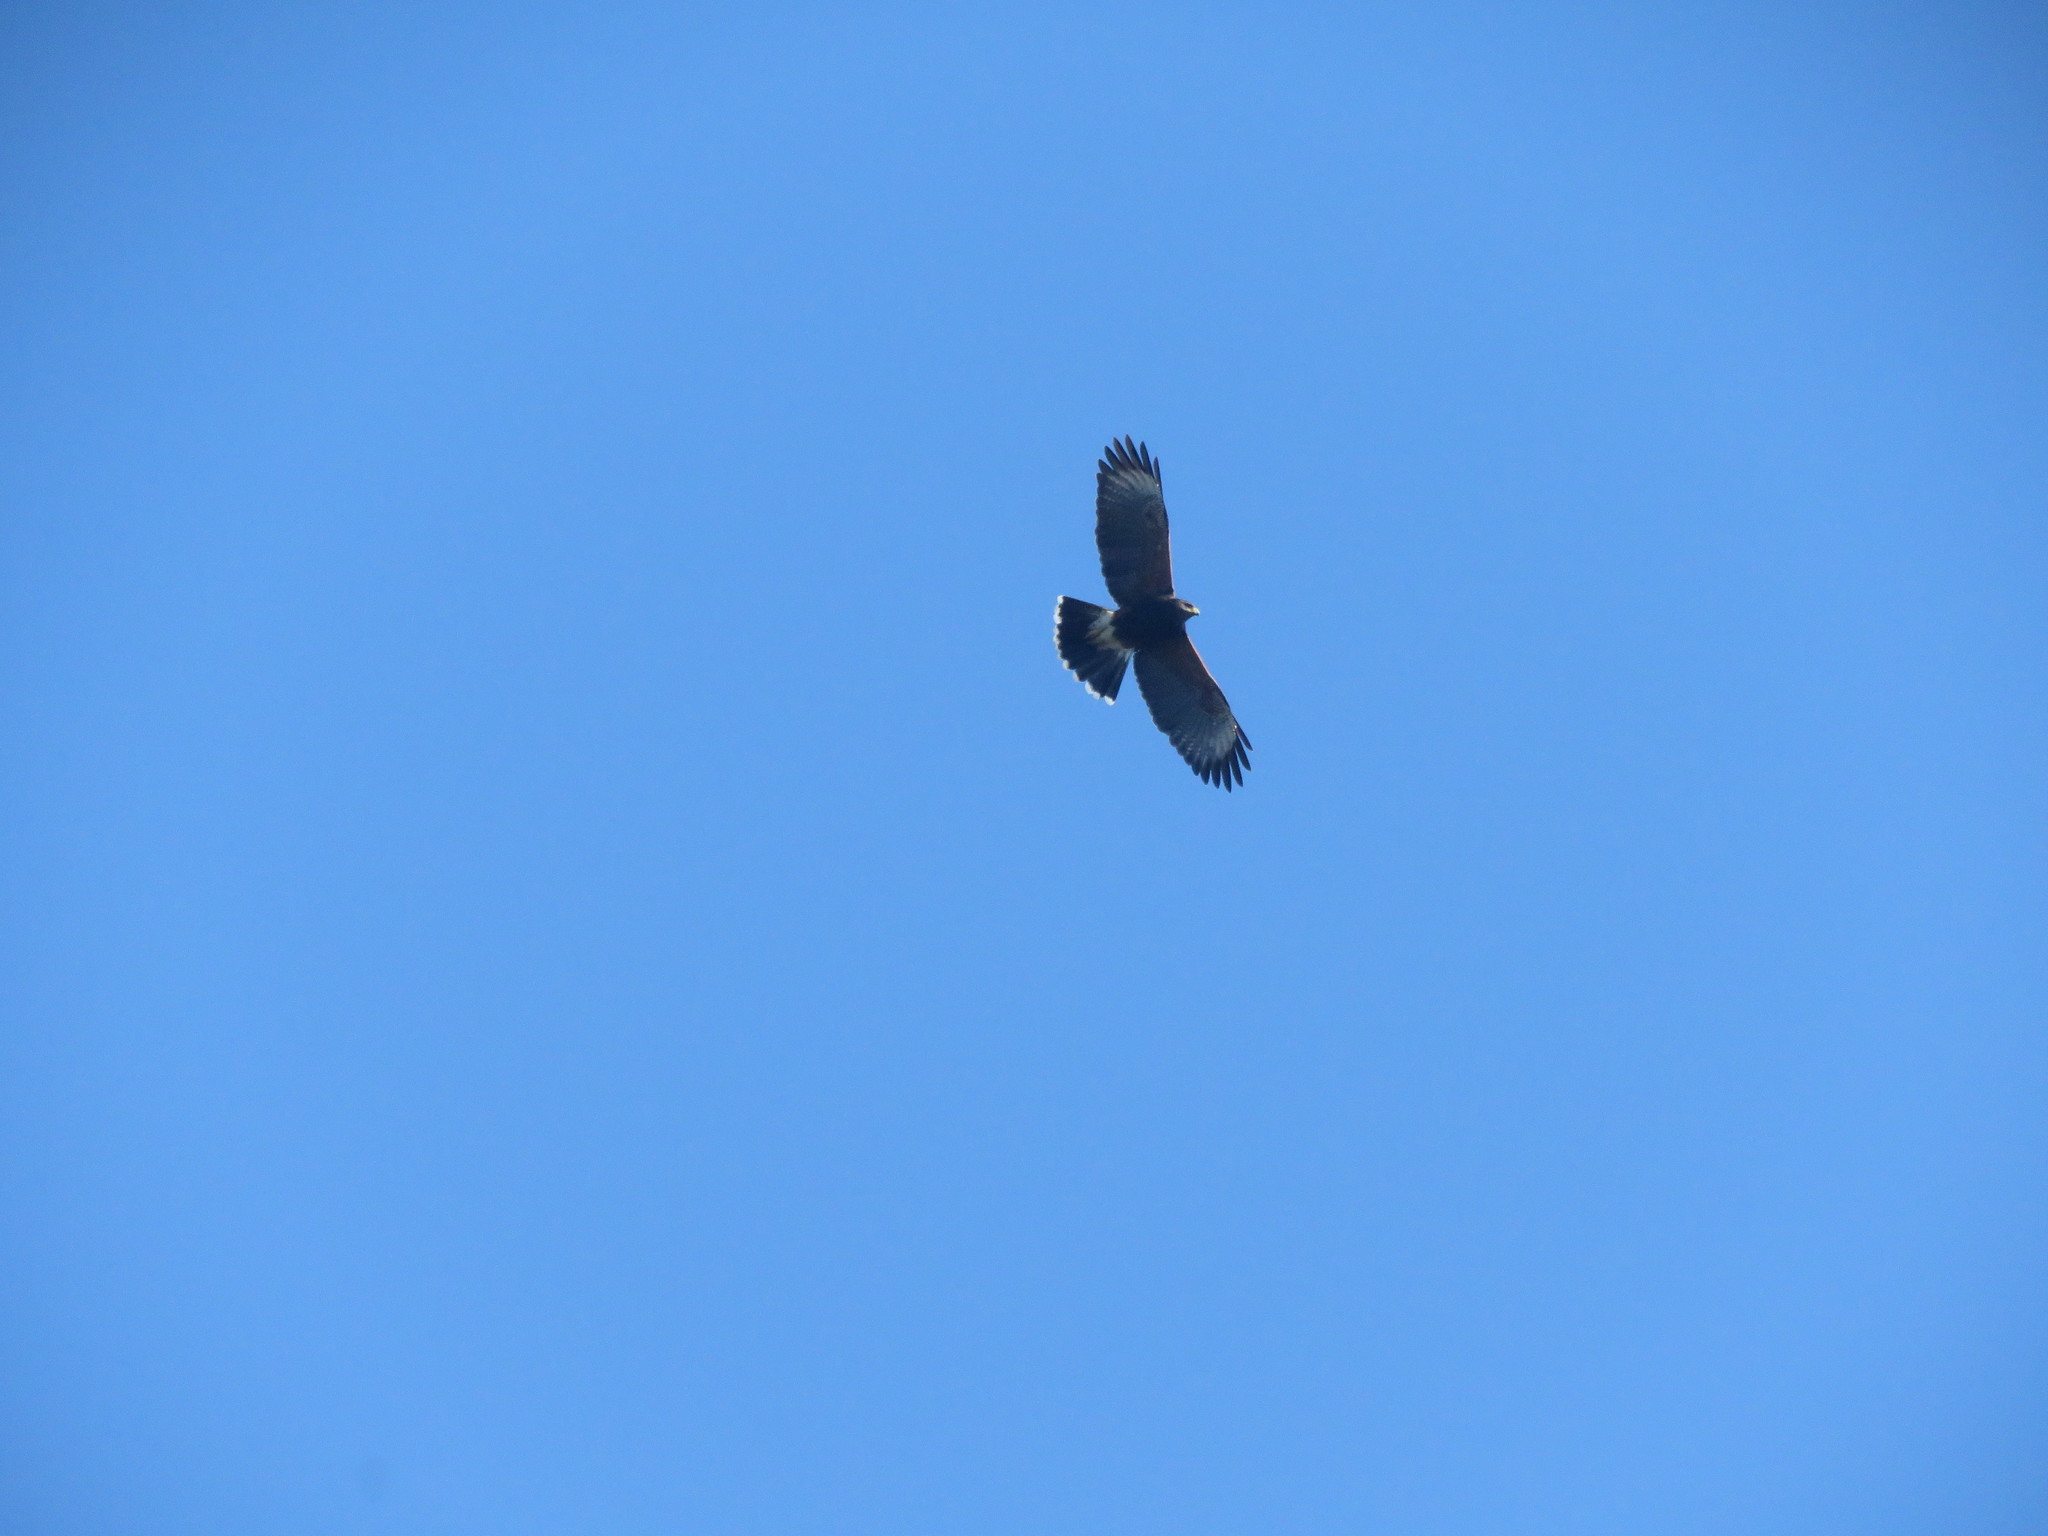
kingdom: Animalia
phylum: Chordata
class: Aves
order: Accipitriformes
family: Accipitridae
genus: Parabuteo
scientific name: Parabuteo unicinctus
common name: Harris's hawk
